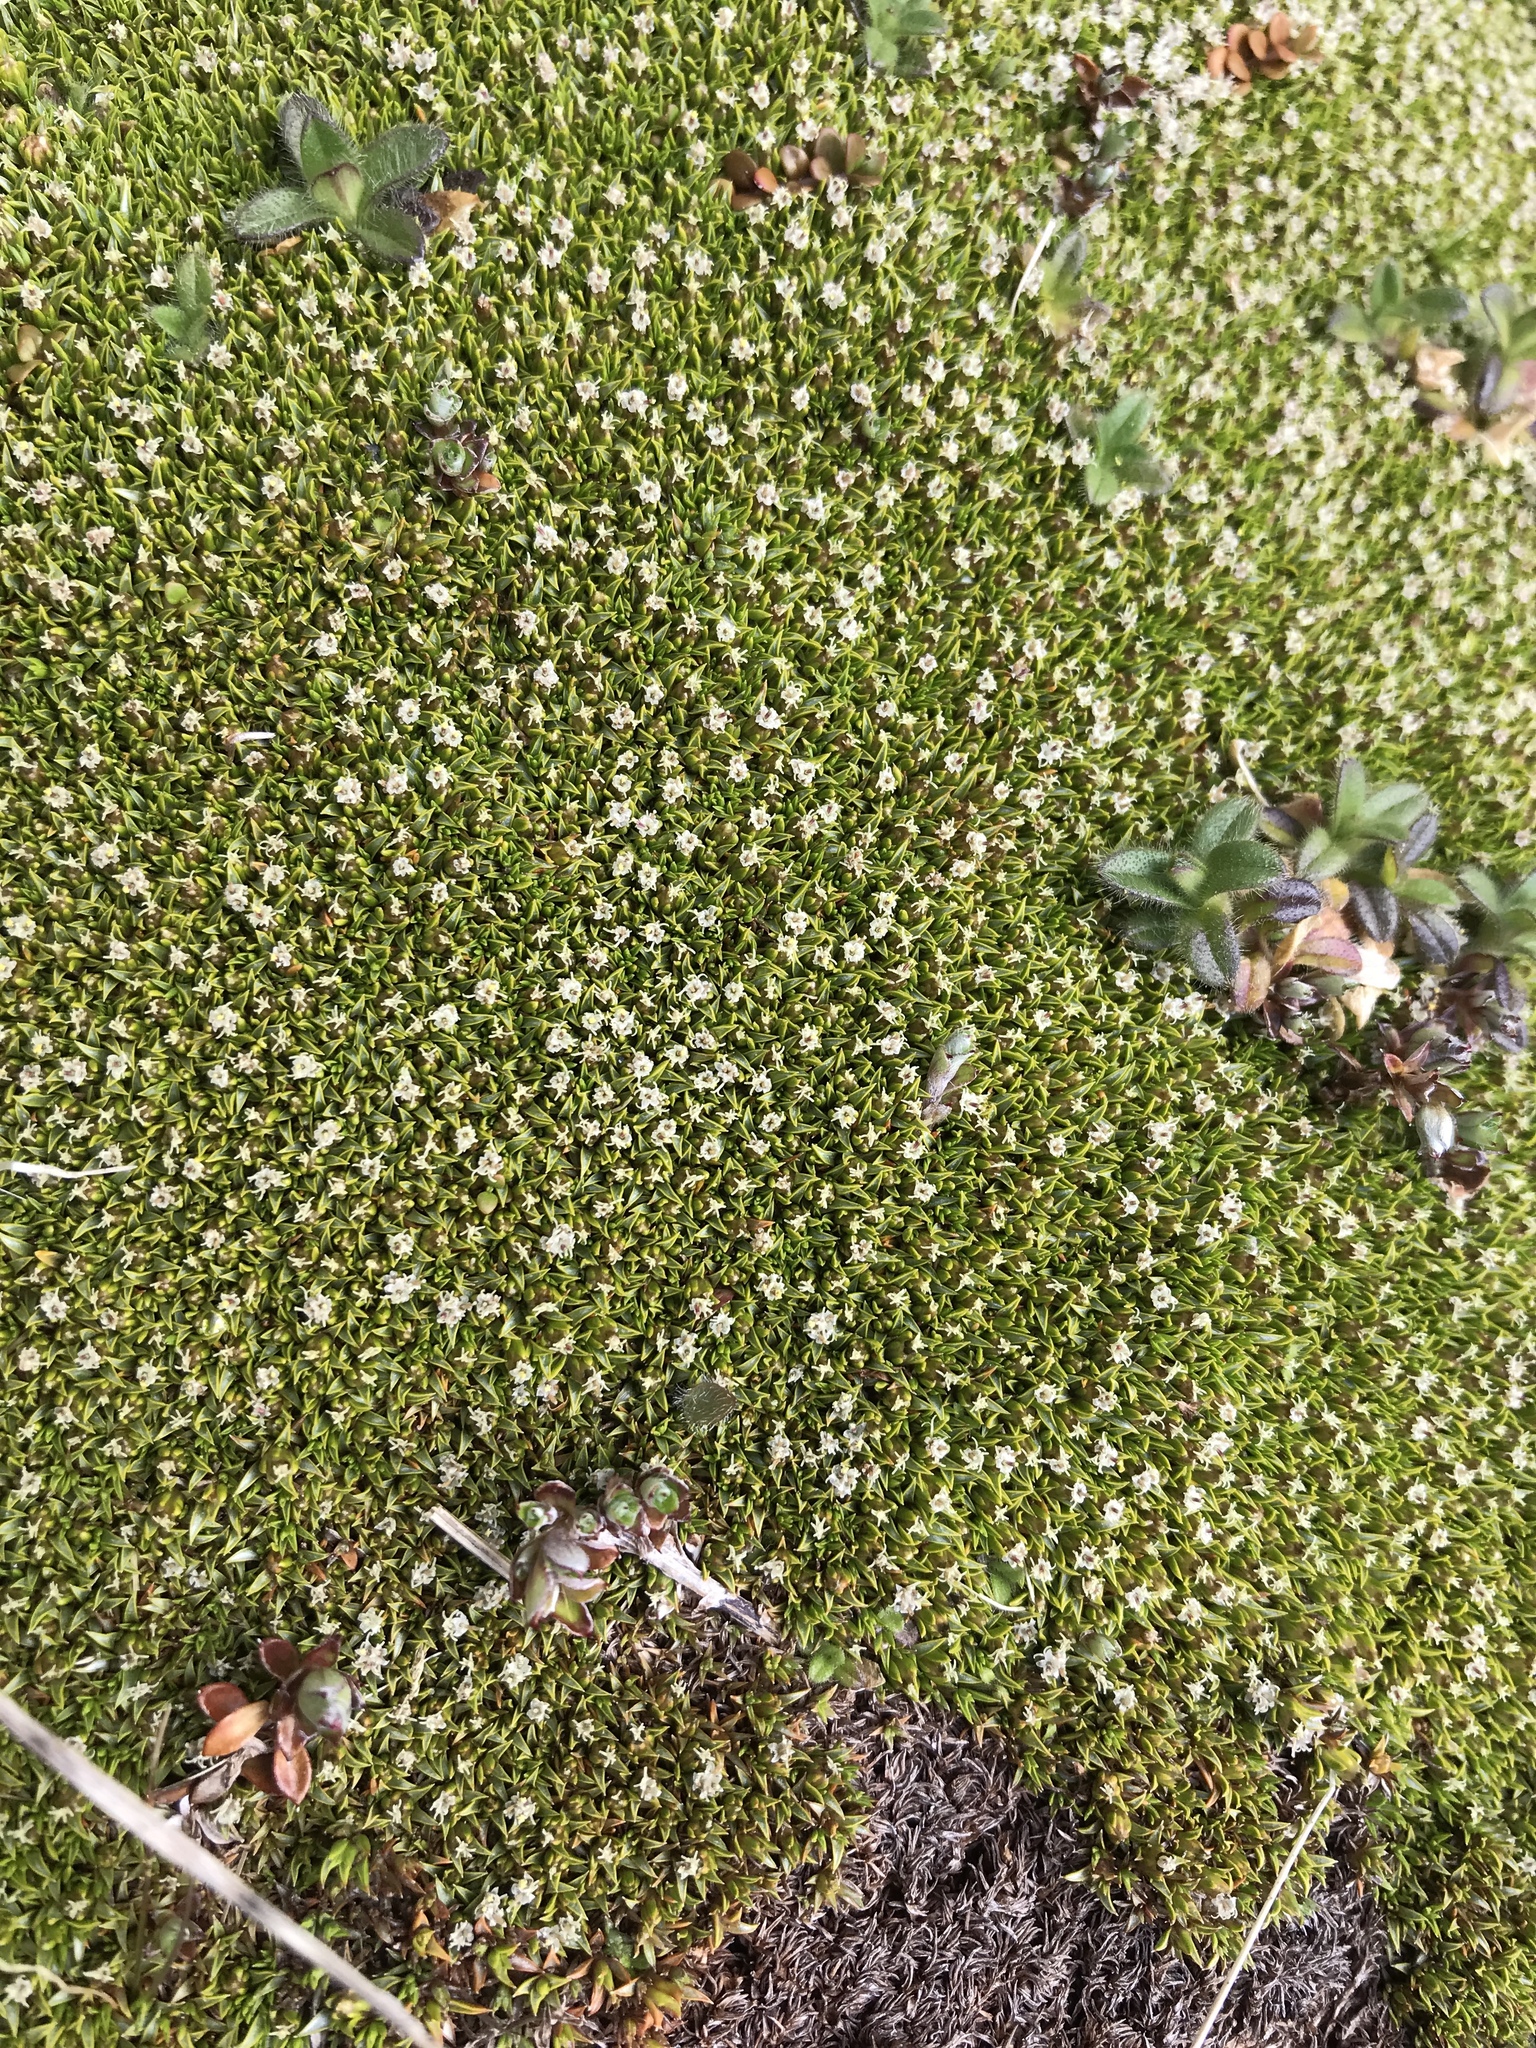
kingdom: Plantae
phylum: Tracheophyta
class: Magnoliopsida
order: Asterales
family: Asteraceae
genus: Raoulia
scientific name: Raoulia tenuicaulis
